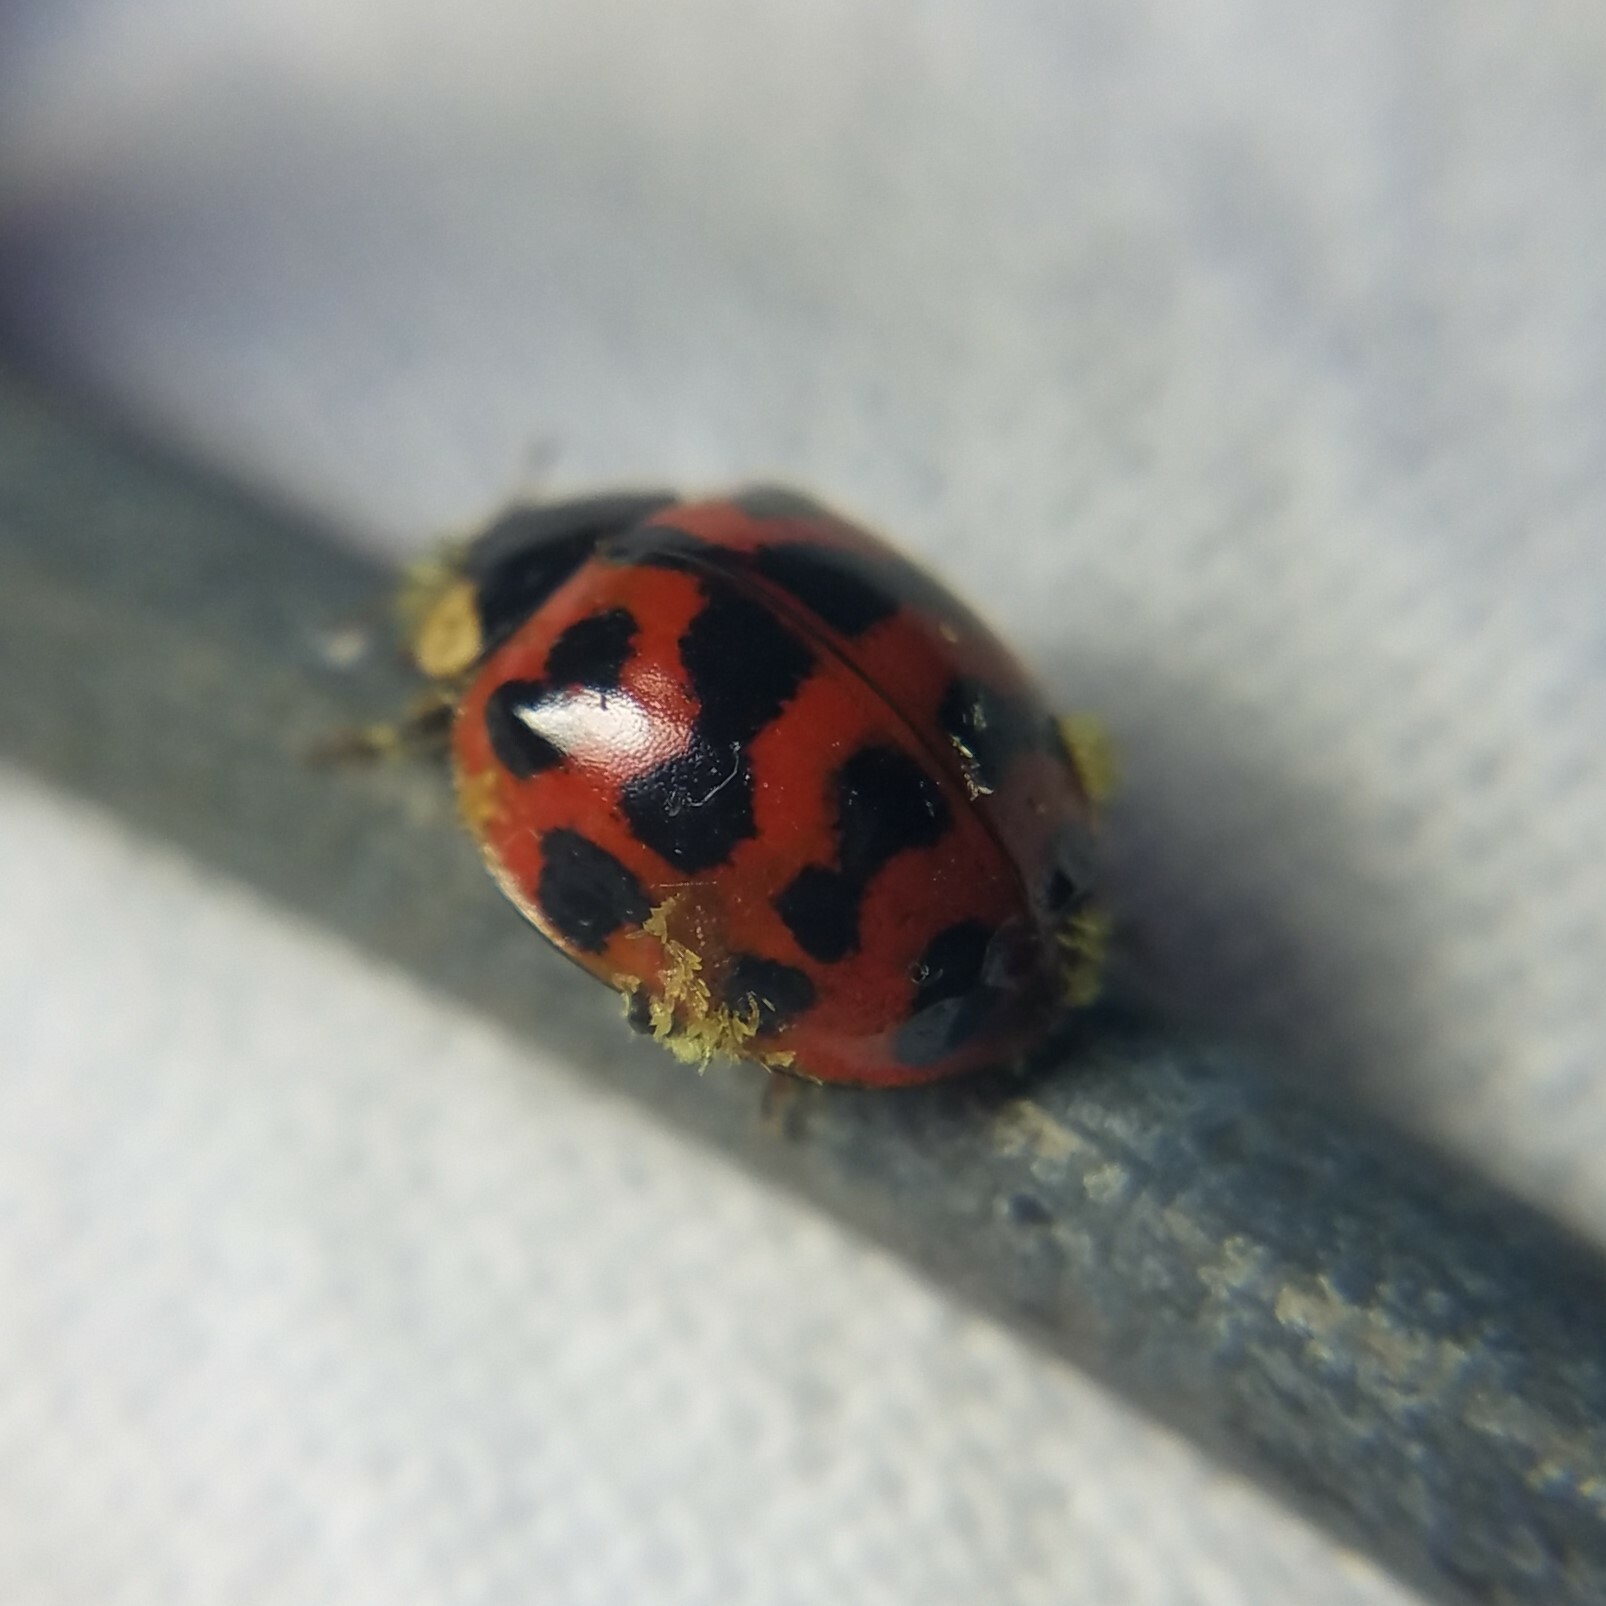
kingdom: Fungi
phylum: Ascomycota
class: Laboulbeniomycetes
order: Laboulbeniales
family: Laboulbeniaceae
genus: Hesperomyces
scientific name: Hesperomyces harmoniae
